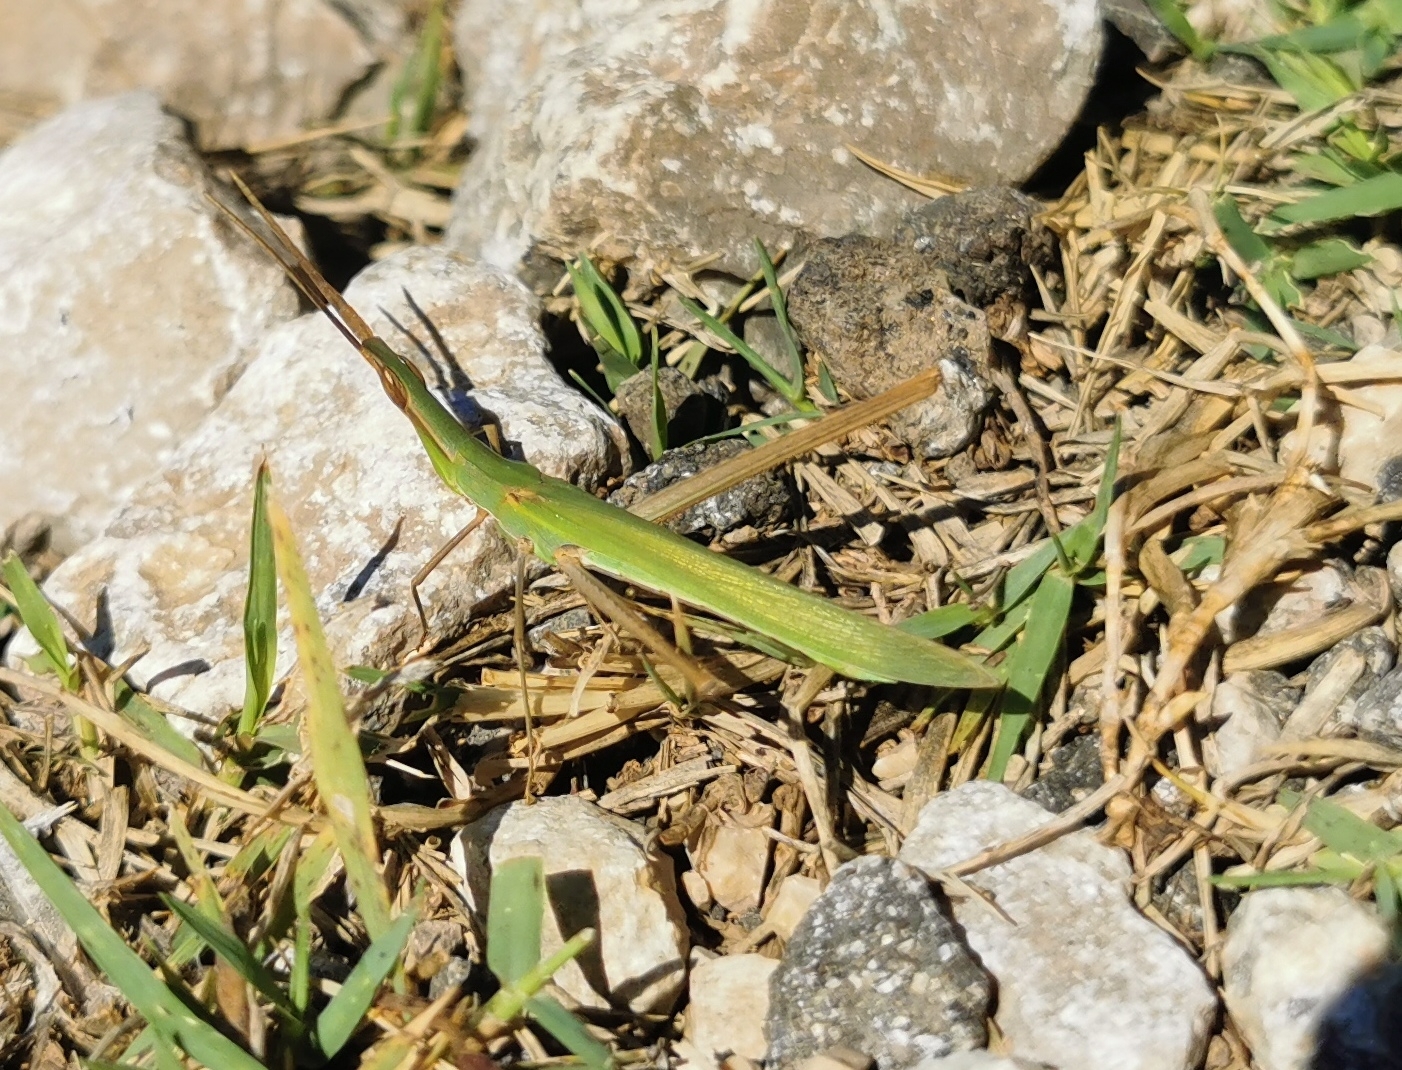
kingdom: Animalia
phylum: Arthropoda
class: Insecta
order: Orthoptera
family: Acrididae
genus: Acrida
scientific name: Acrida ungarica
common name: Common cone-headed grasshopper
